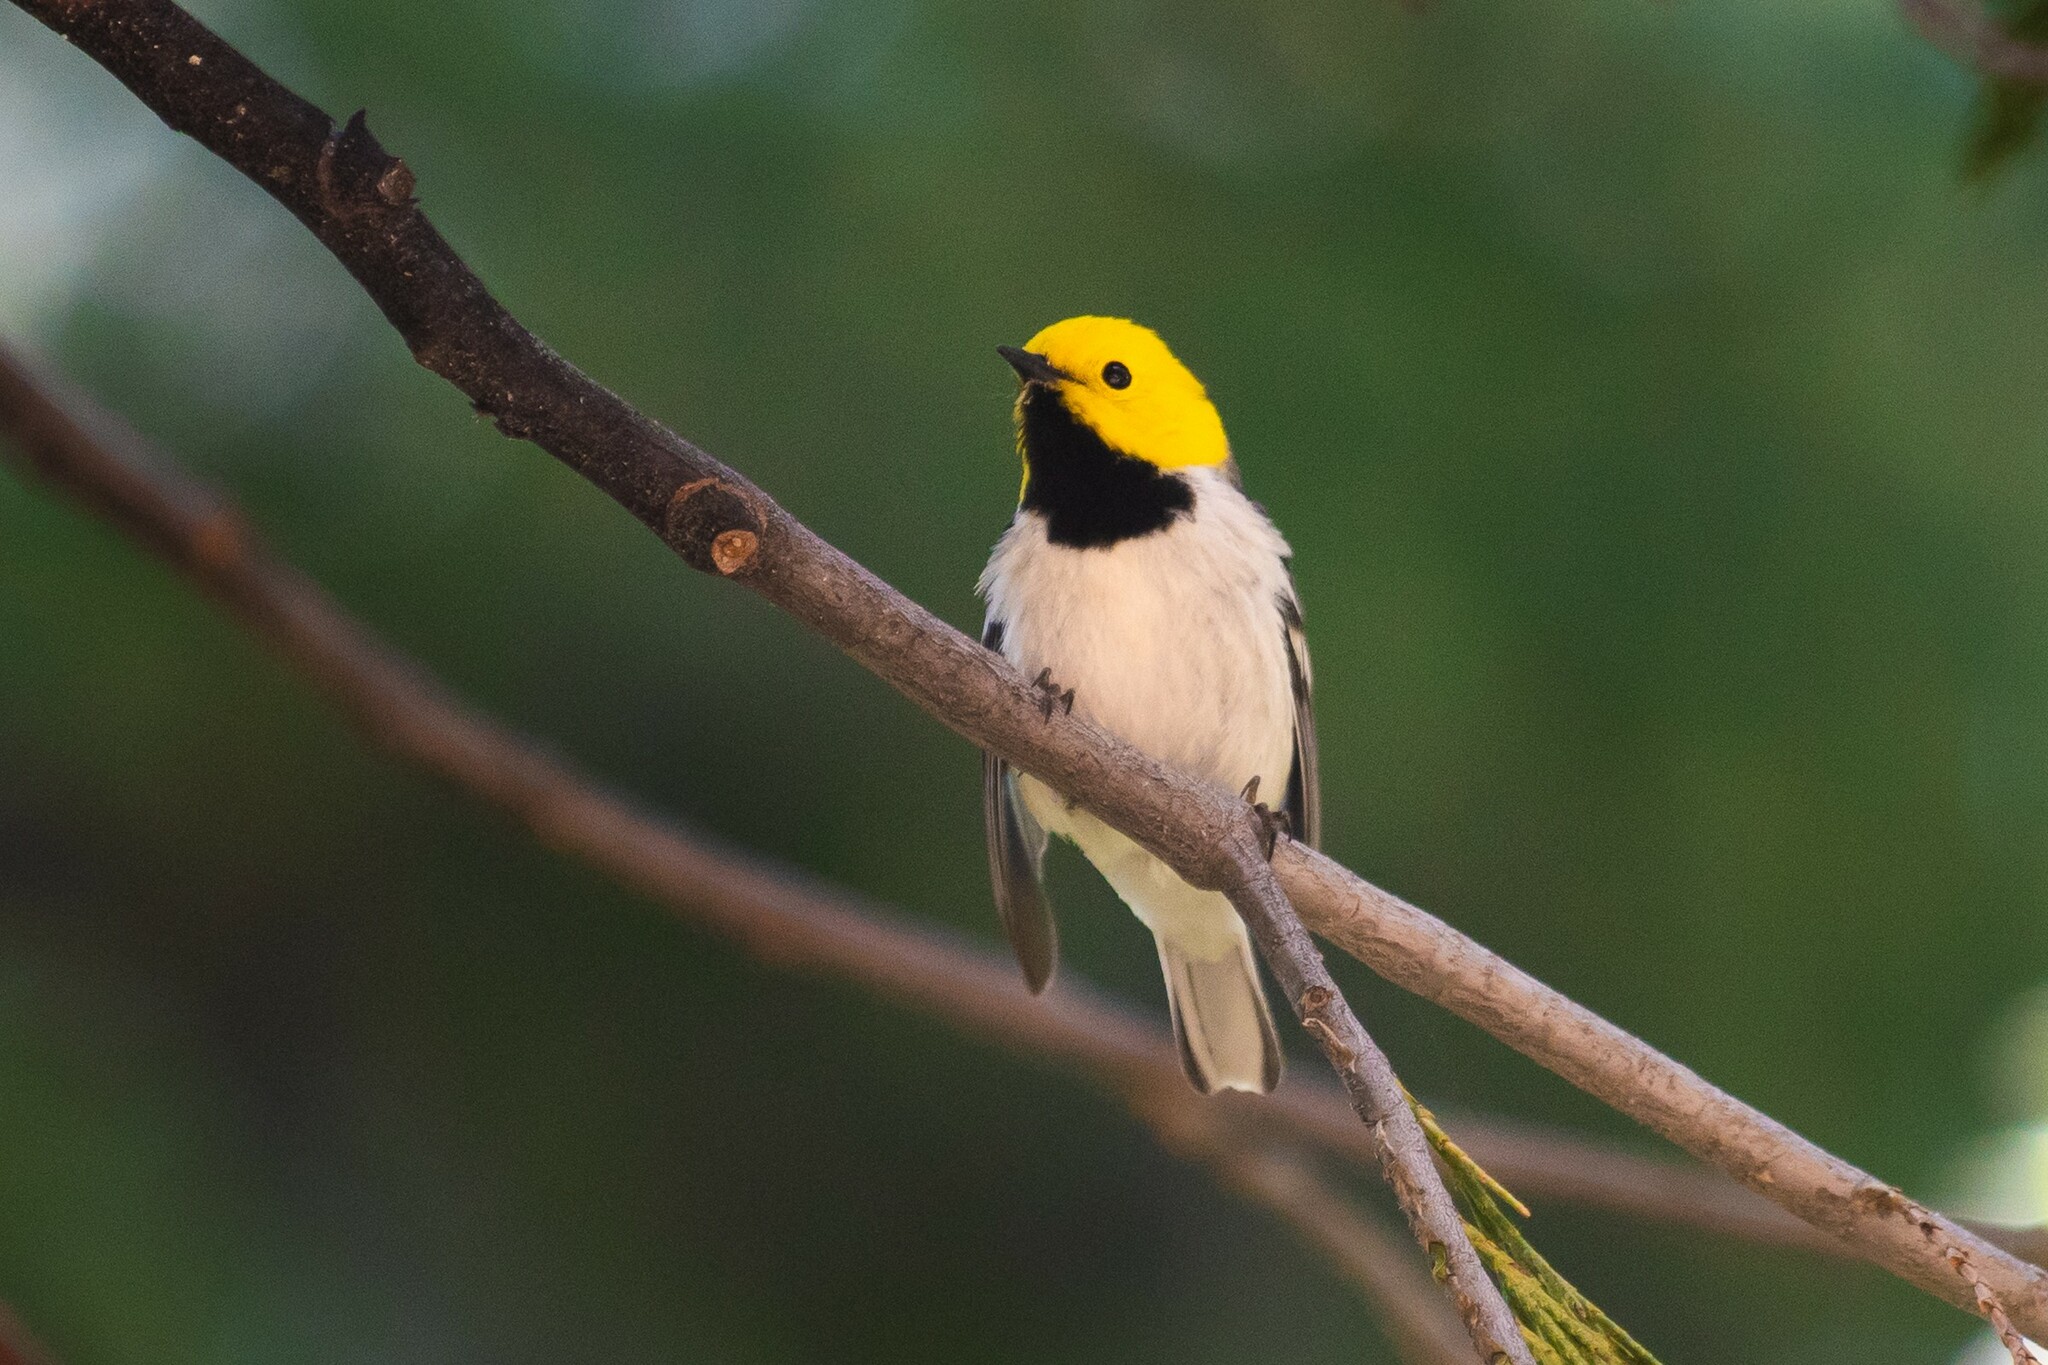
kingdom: Animalia
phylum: Chordata
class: Aves
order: Passeriformes
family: Parulidae
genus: Setophaga
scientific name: Setophaga occidentalis
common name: Hermit warbler
